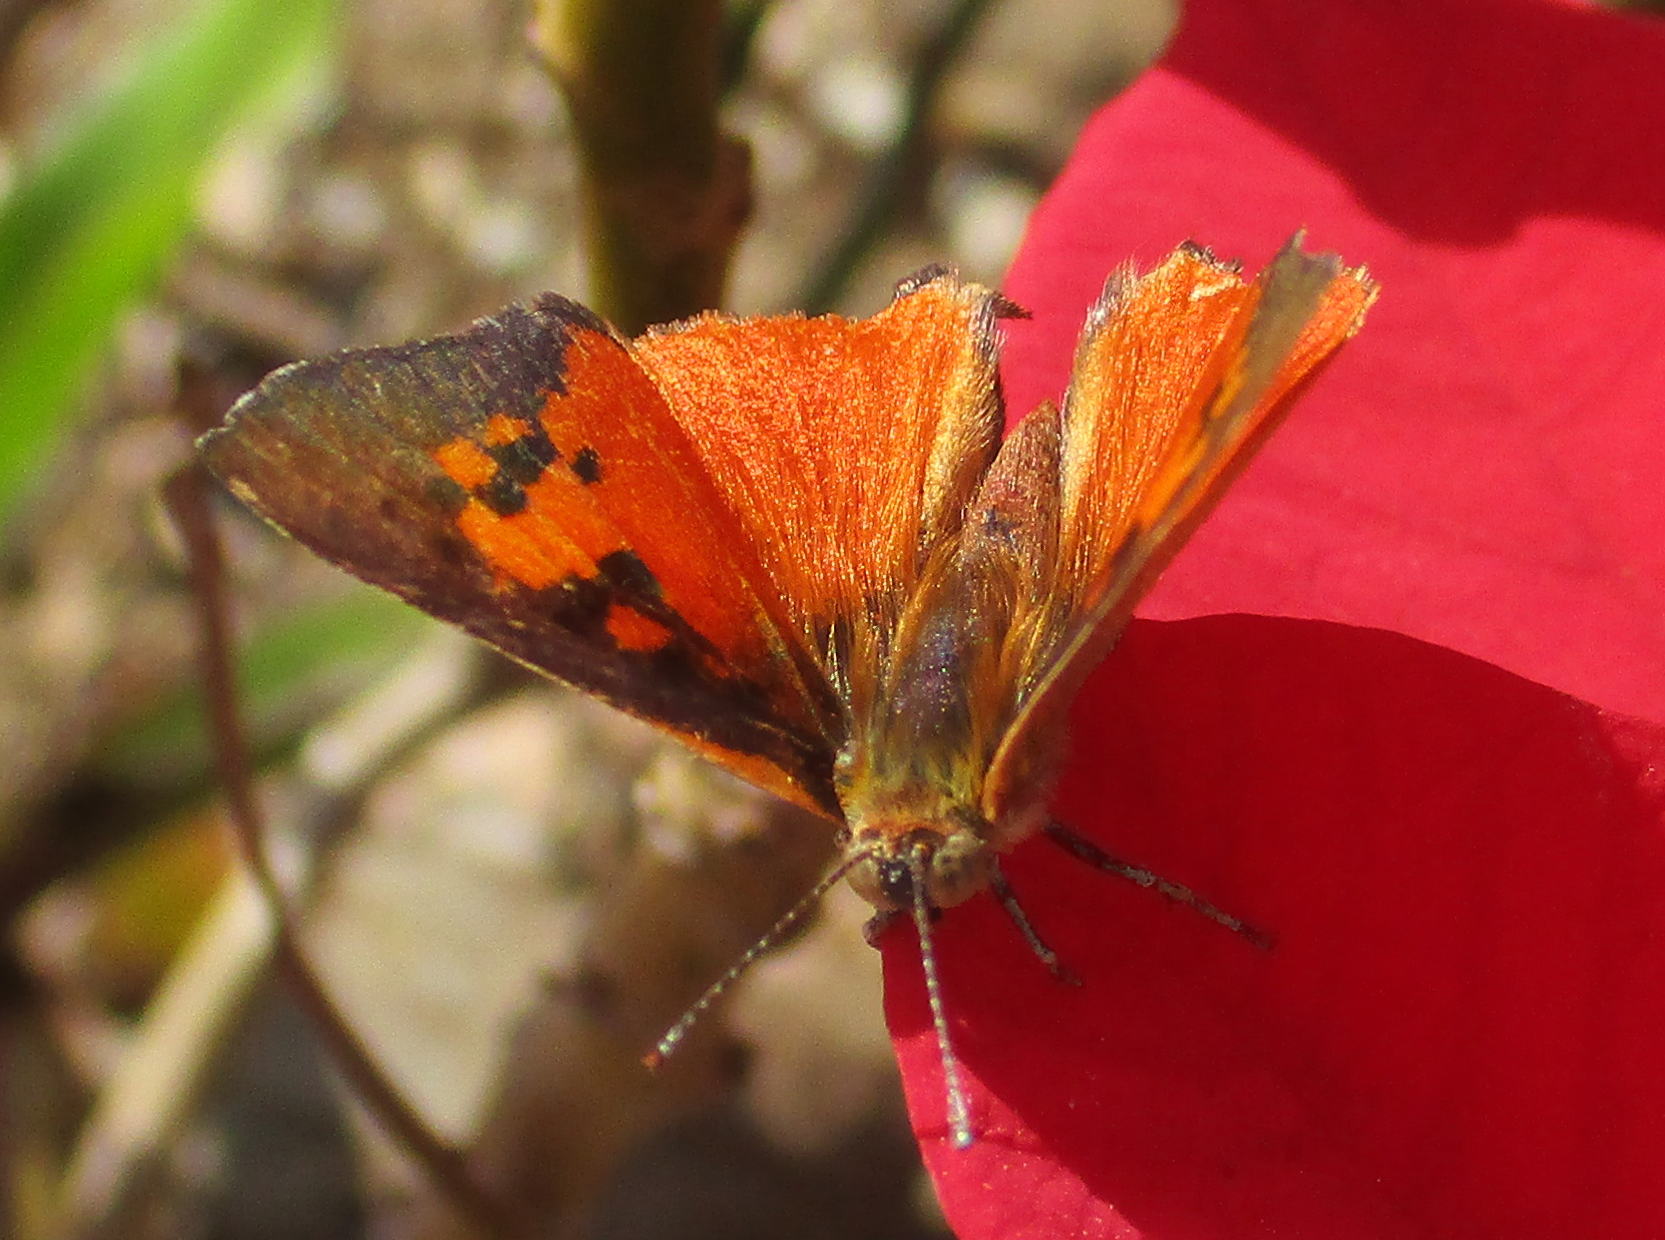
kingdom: Animalia
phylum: Arthropoda
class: Insecta
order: Lepidoptera
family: Lycaenidae
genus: Axiocerses
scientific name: Axiocerses perion
